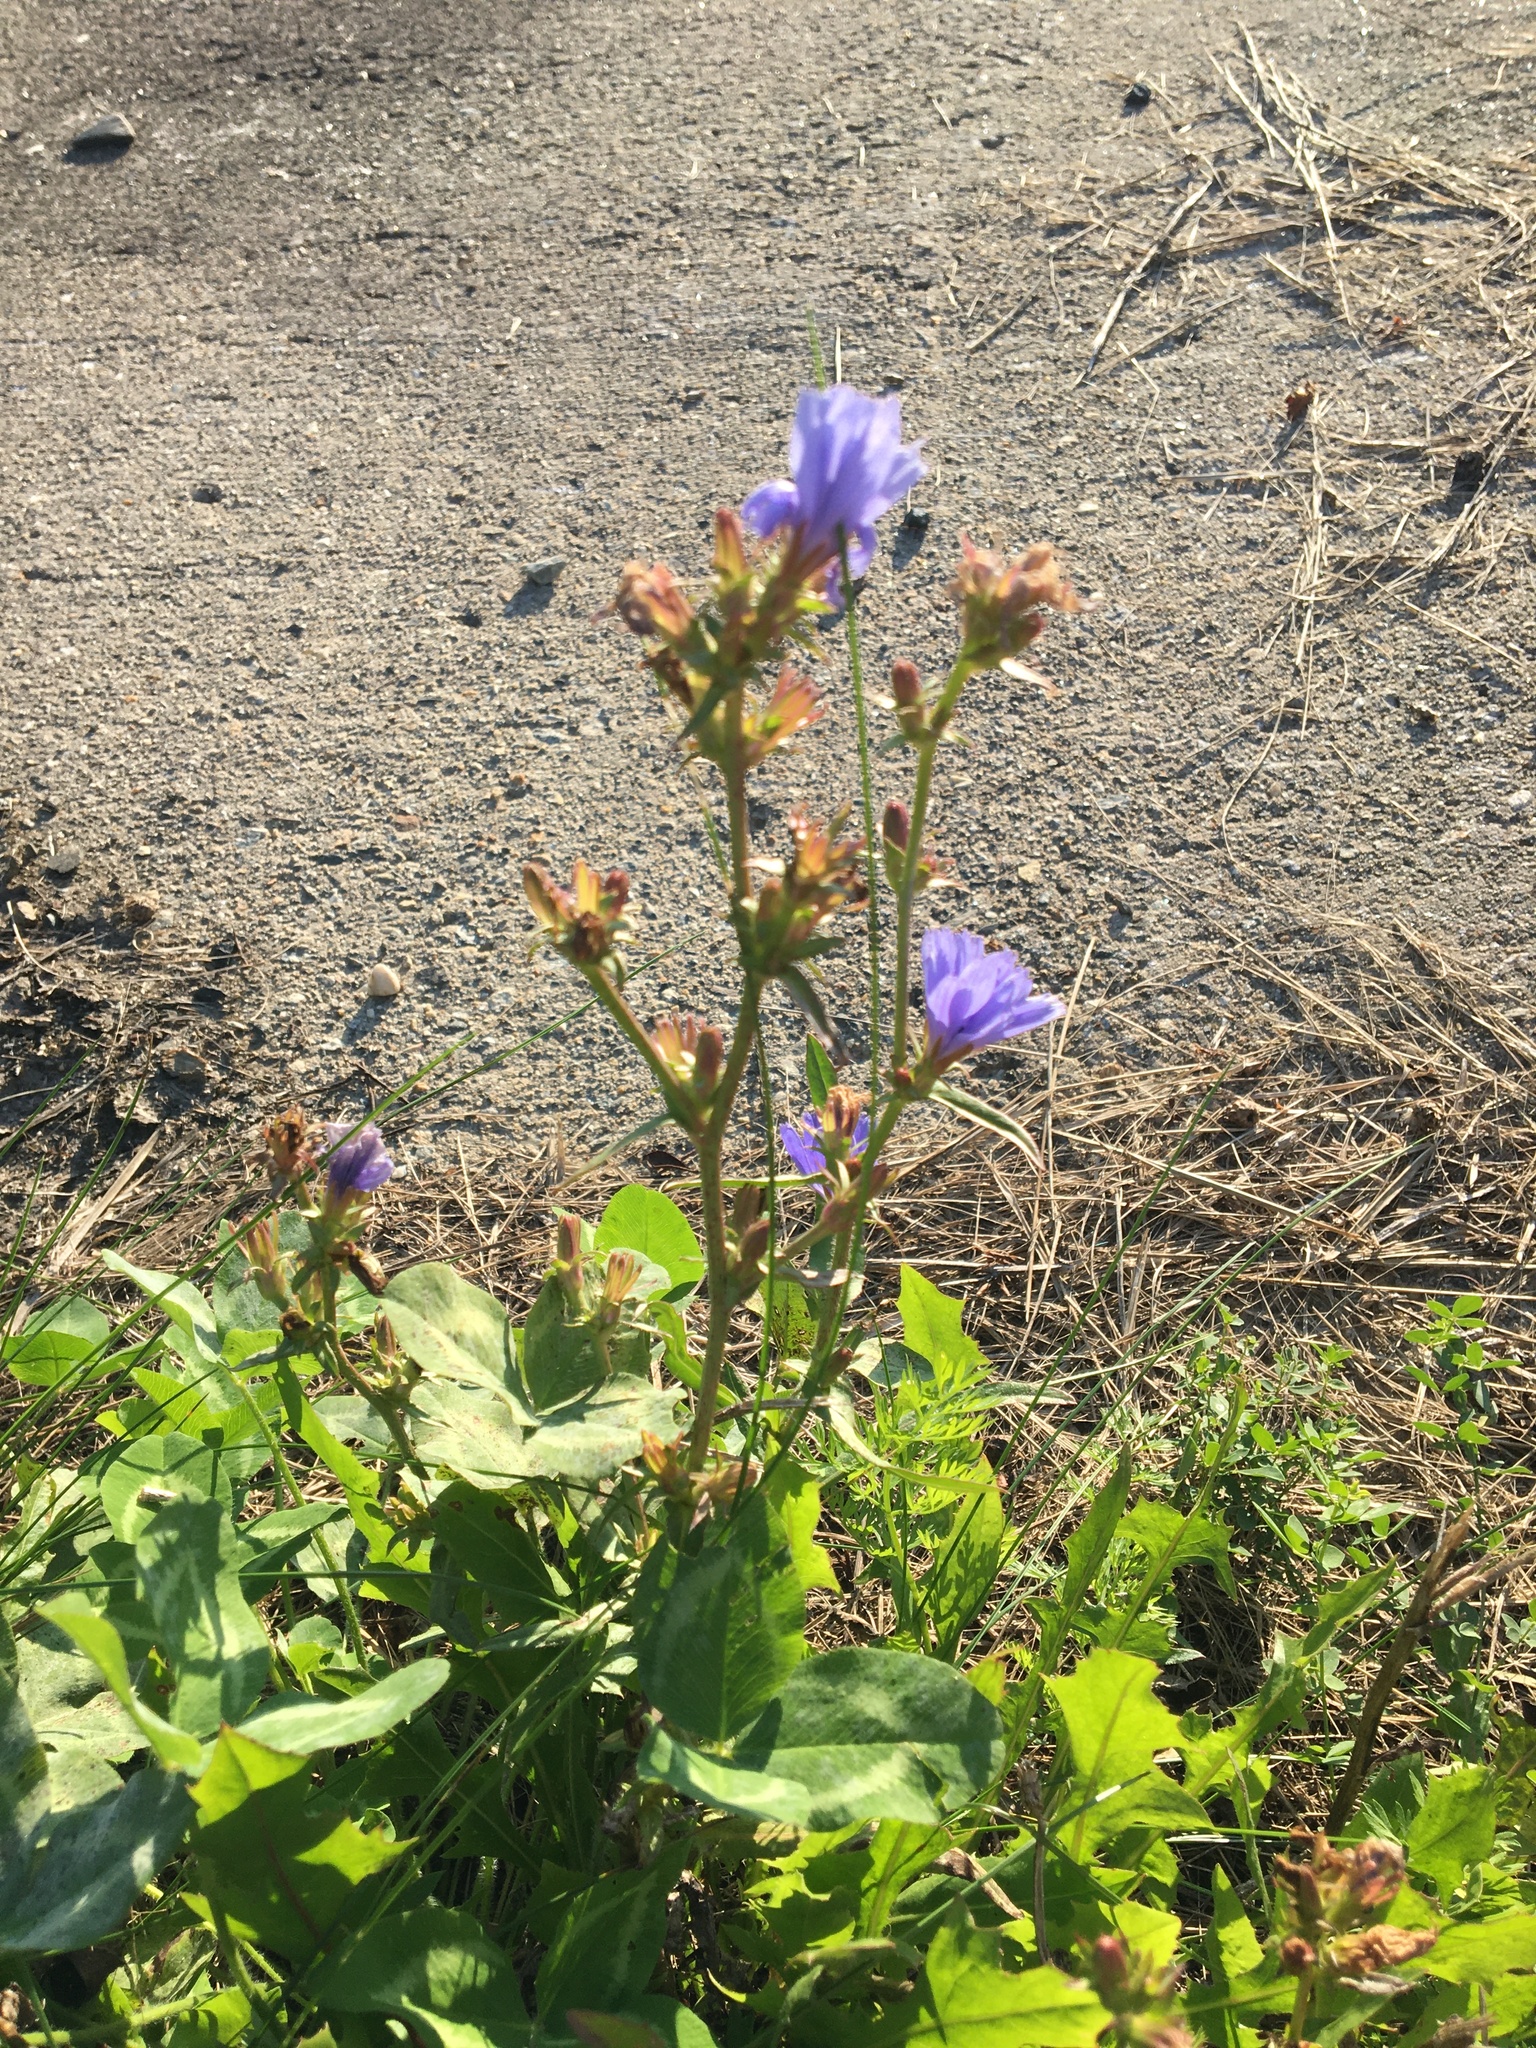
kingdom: Plantae
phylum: Tracheophyta
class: Magnoliopsida
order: Asterales
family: Asteraceae
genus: Cichorium
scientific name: Cichorium intybus
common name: Chicory
